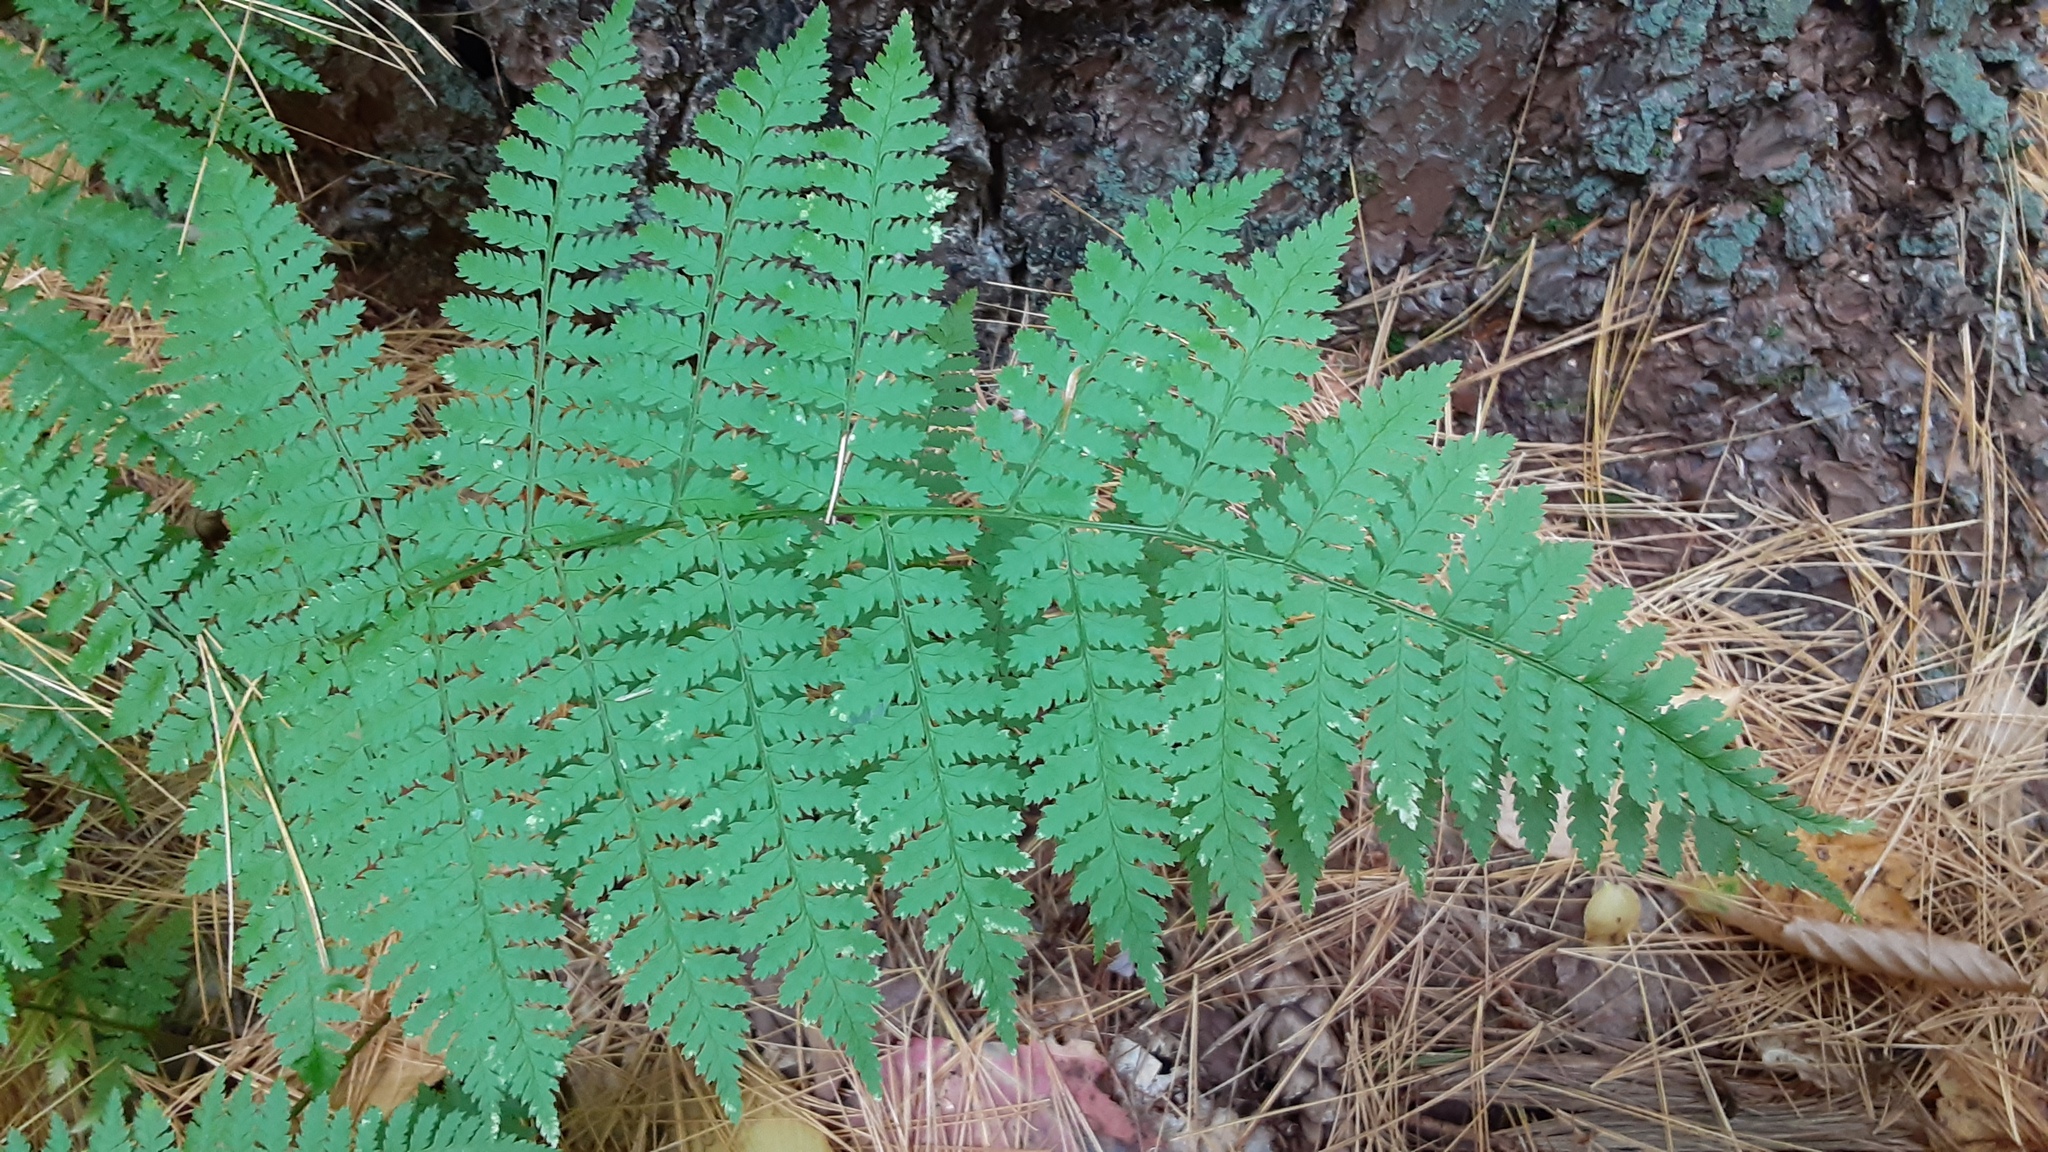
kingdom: Plantae
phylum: Tracheophyta
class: Polypodiopsida
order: Polypodiales
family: Dryopteridaceae
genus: Dryopteris
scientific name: Dryopteris intermedia
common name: Evergreen wood fern
